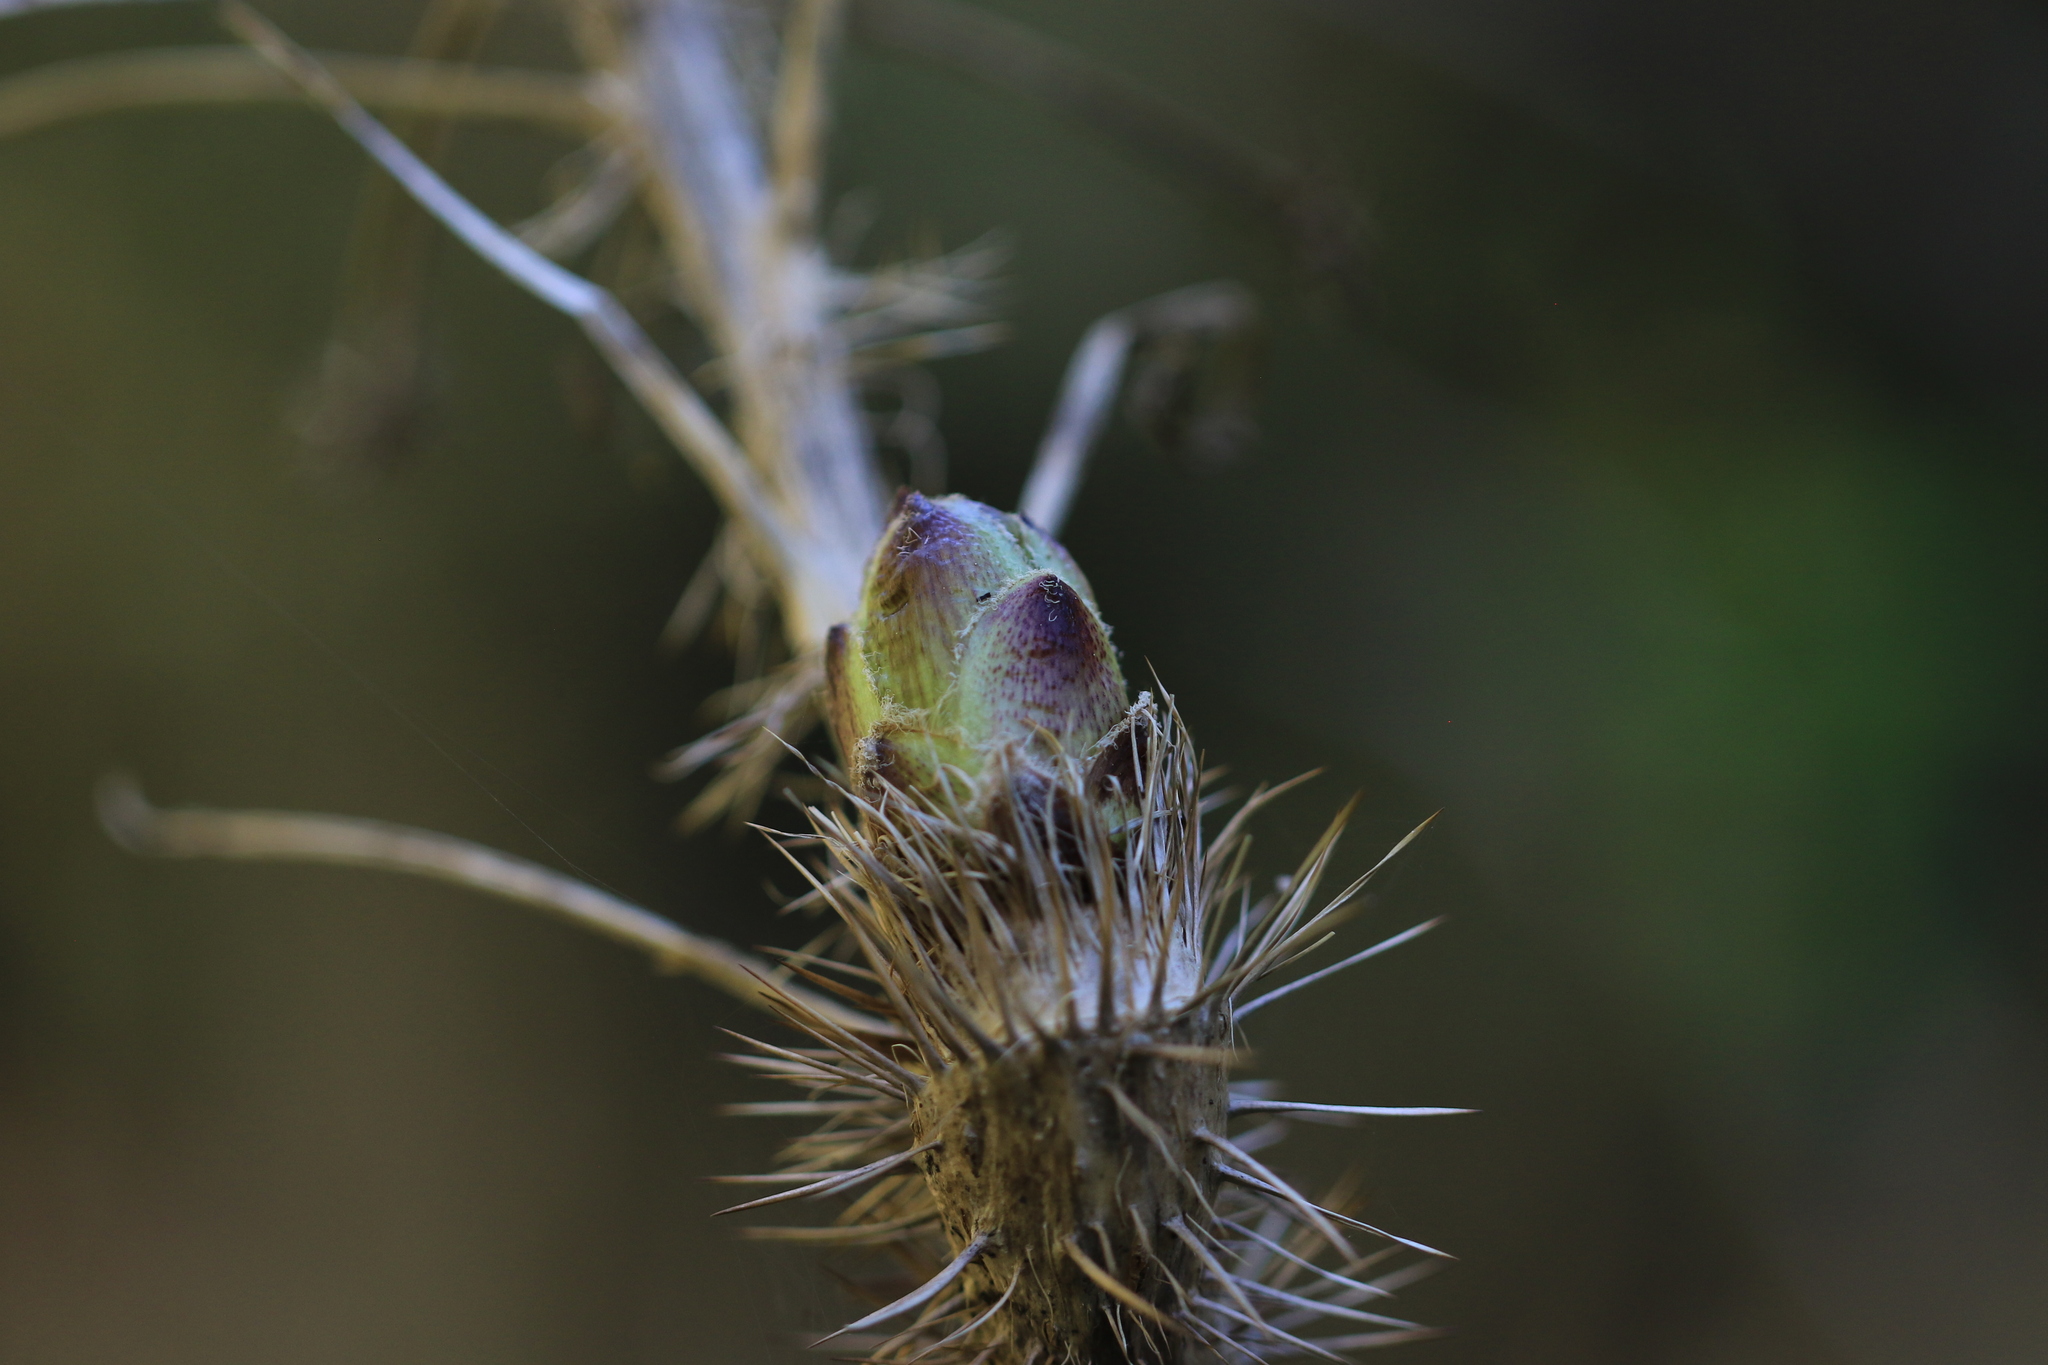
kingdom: Plantae
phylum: Tracheophyta
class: Magnoliopsida
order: Apiales
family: Araliaceae
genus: Oplopanax
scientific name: Oplopanax horridus
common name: Devil's walking-stick
